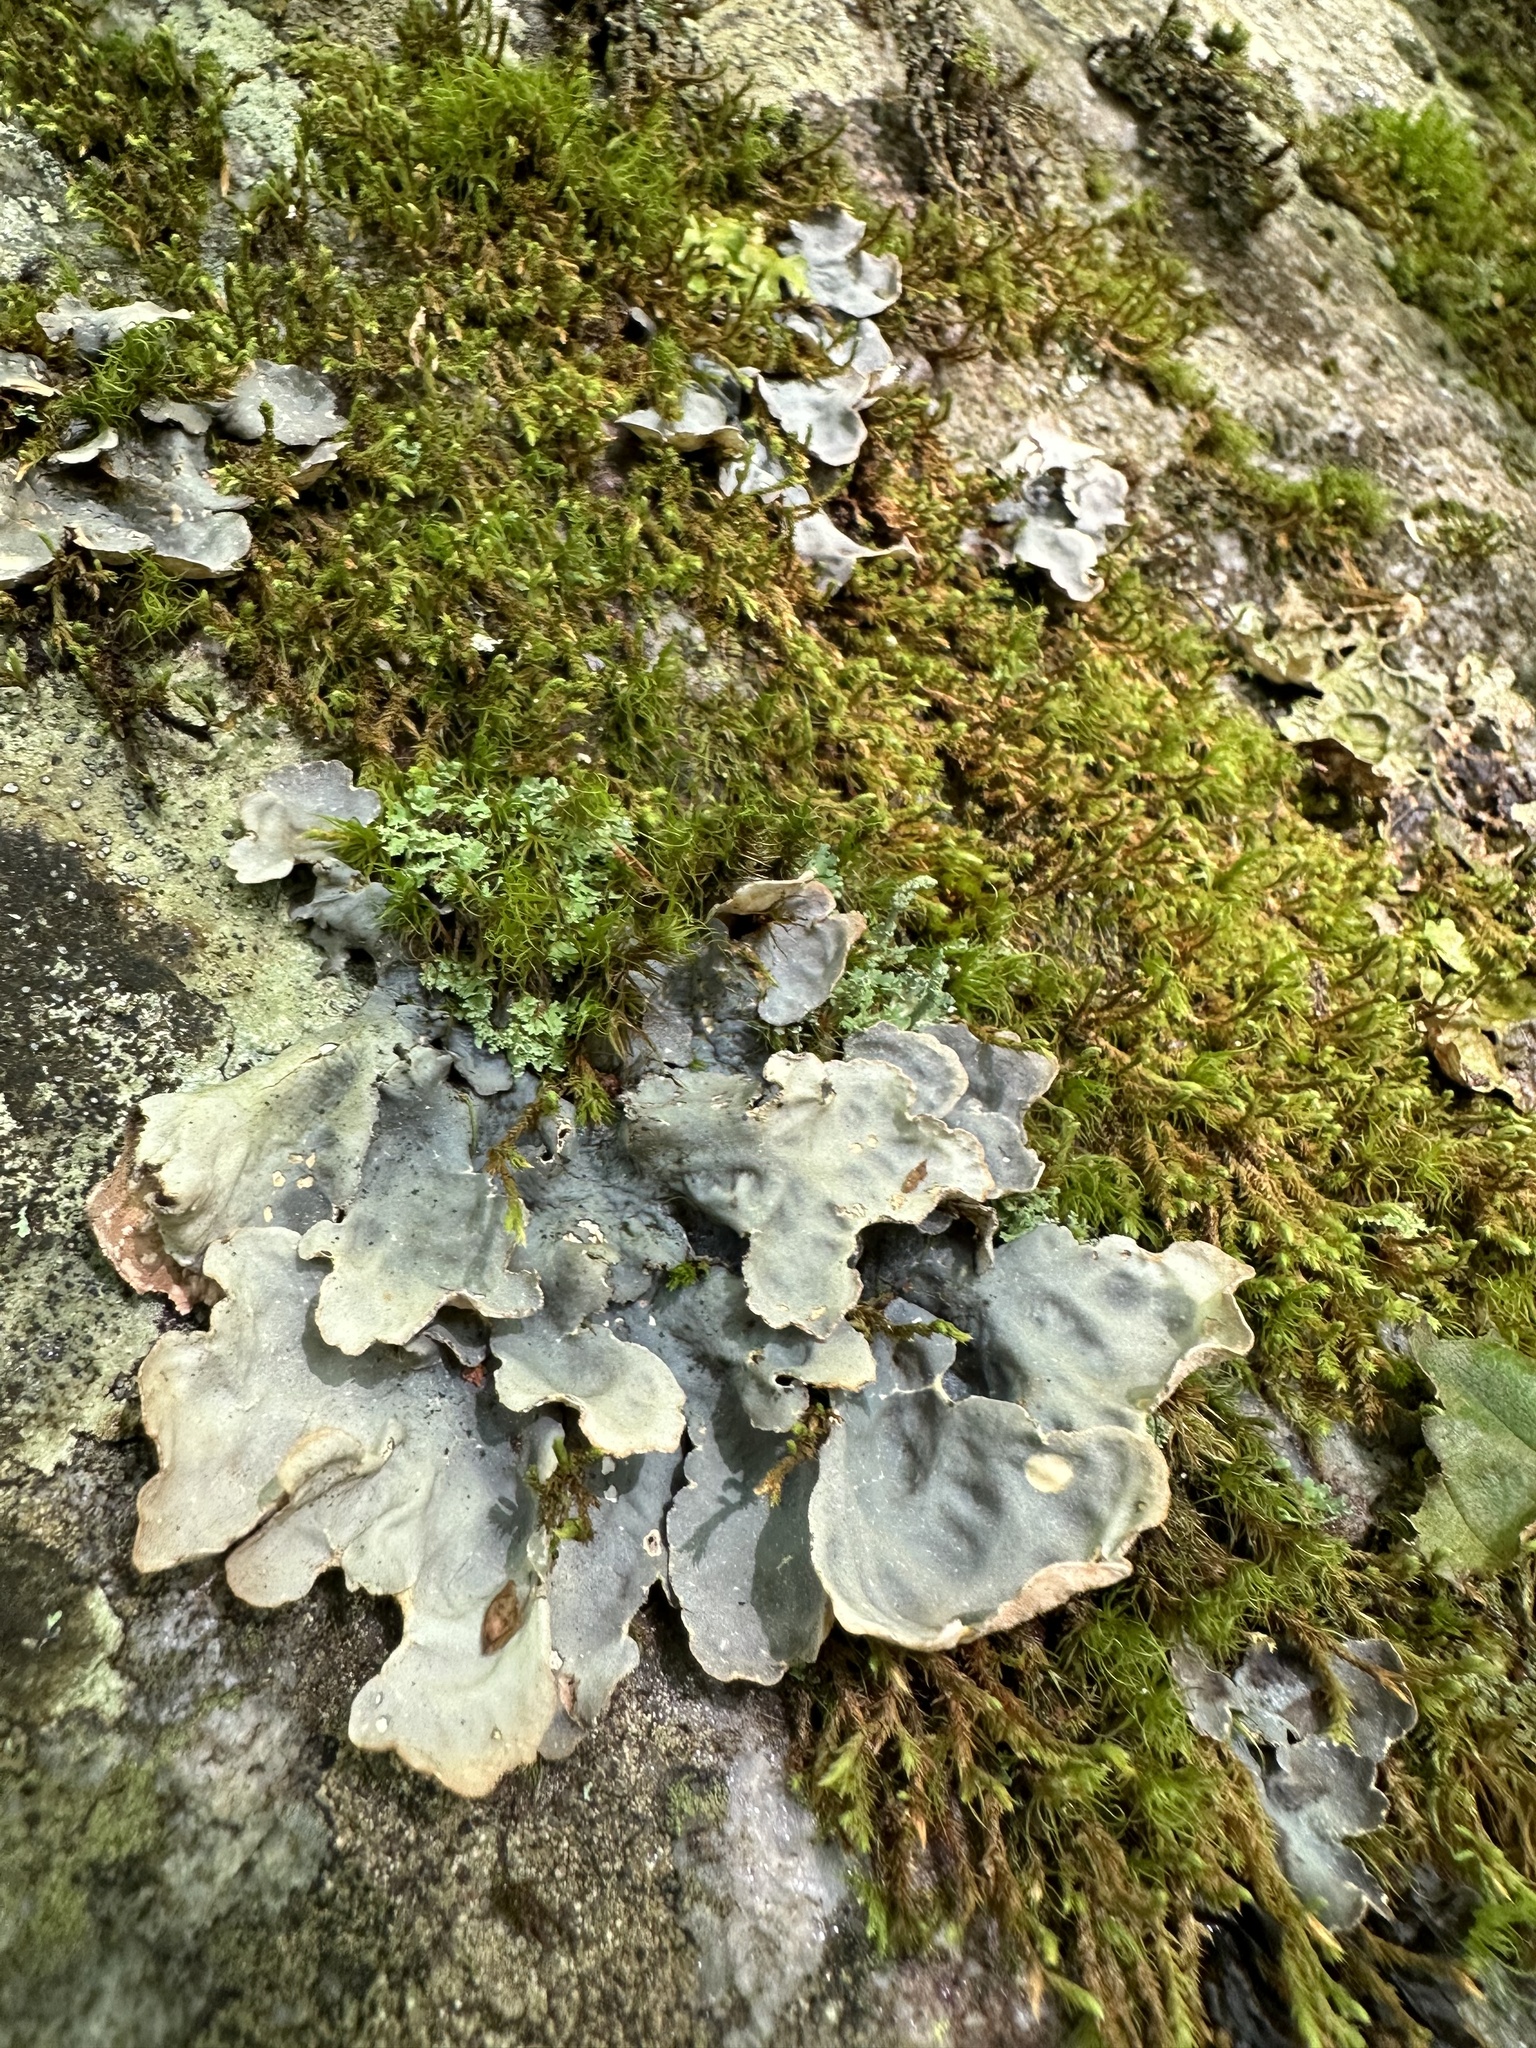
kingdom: Fungi
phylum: Ascomycota
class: Lecanoromycetes
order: Peltigerales
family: Lobariaceae
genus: Lobarina
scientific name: Lobarina scrobiculata
